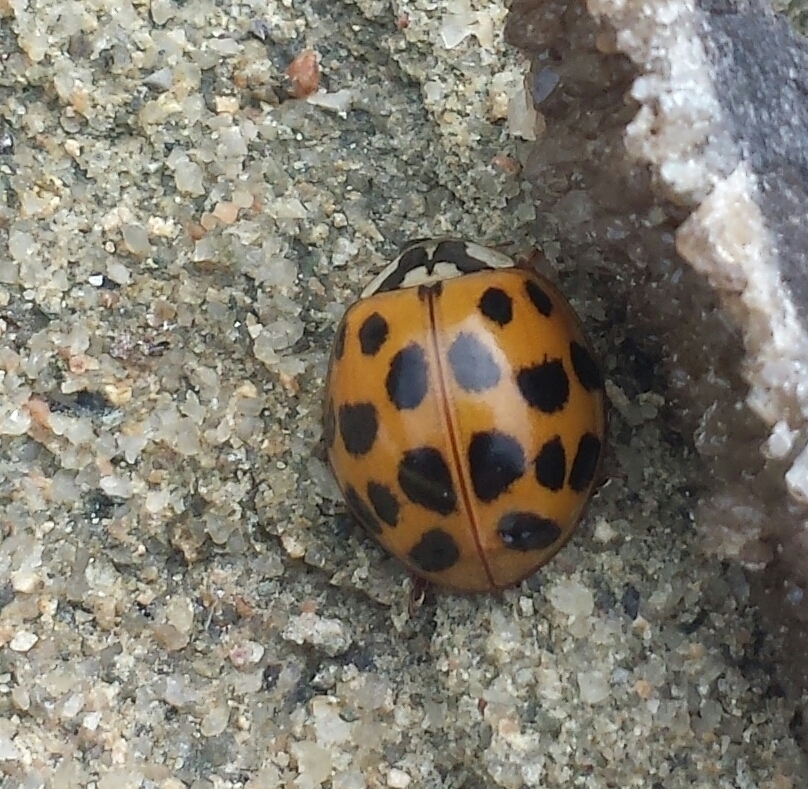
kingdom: Animalia
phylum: Arthropoda
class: Insecta
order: Coleoptera
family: Coccinellidae
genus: Harmonia
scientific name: Harmonia axyridis
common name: Harlequin ladybird
